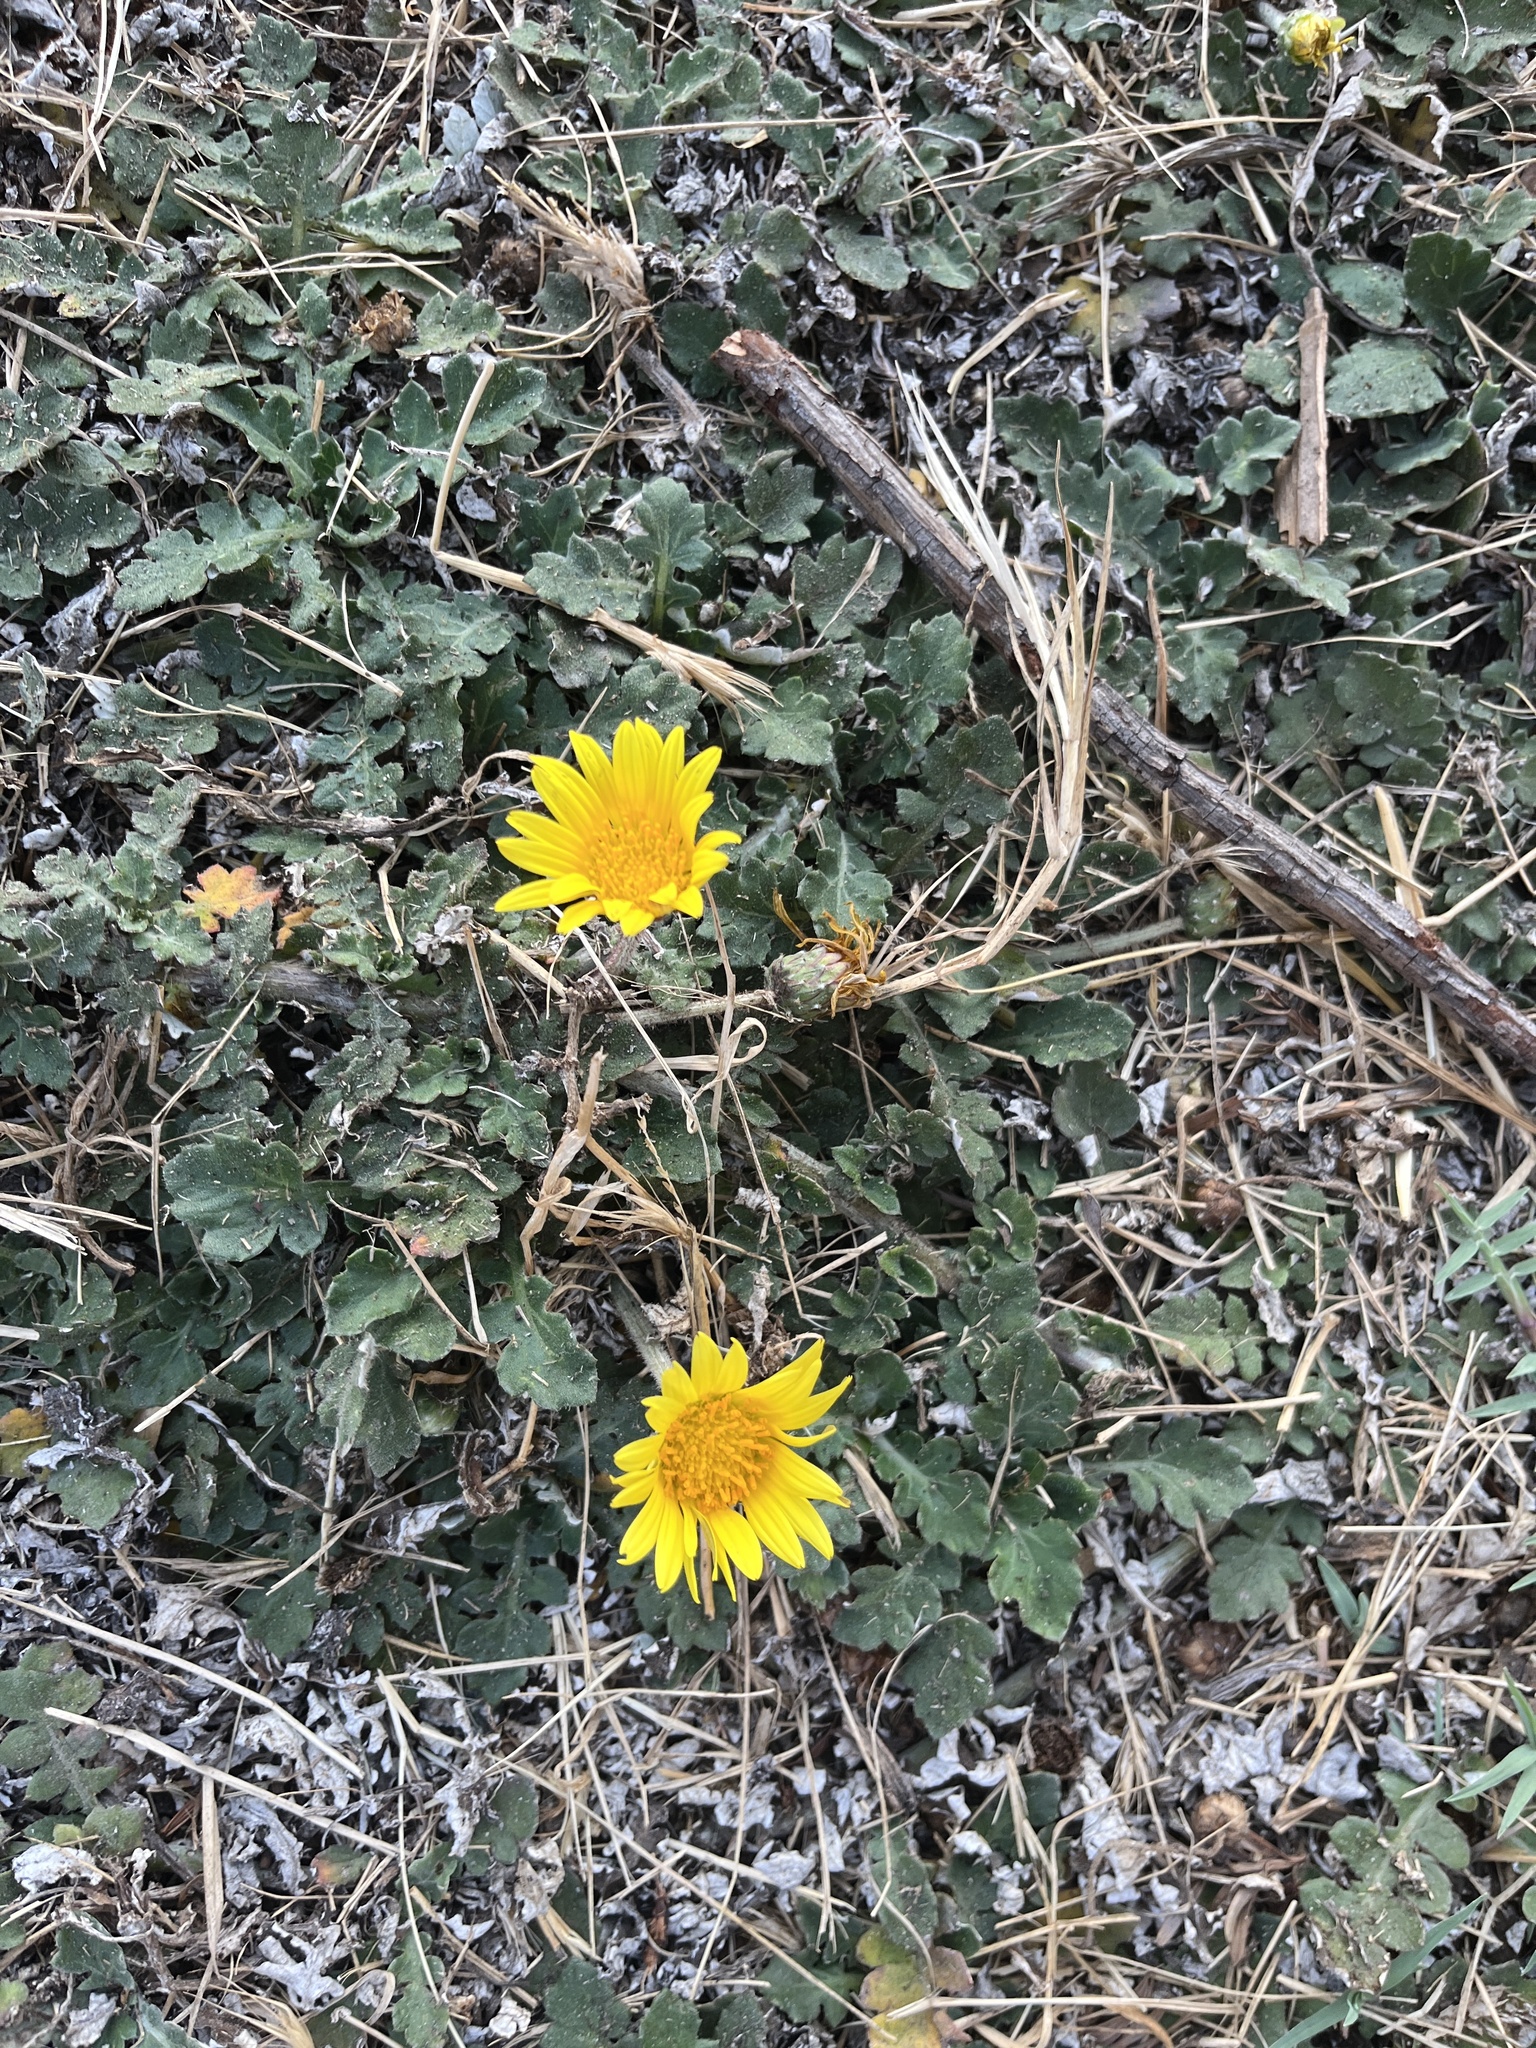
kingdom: Plantae
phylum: Tracheophyta
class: Magnoliopsida
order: Asterales
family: Asteraceae
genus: Arctotheca
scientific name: Arctotheca prostrata
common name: Capeweed
